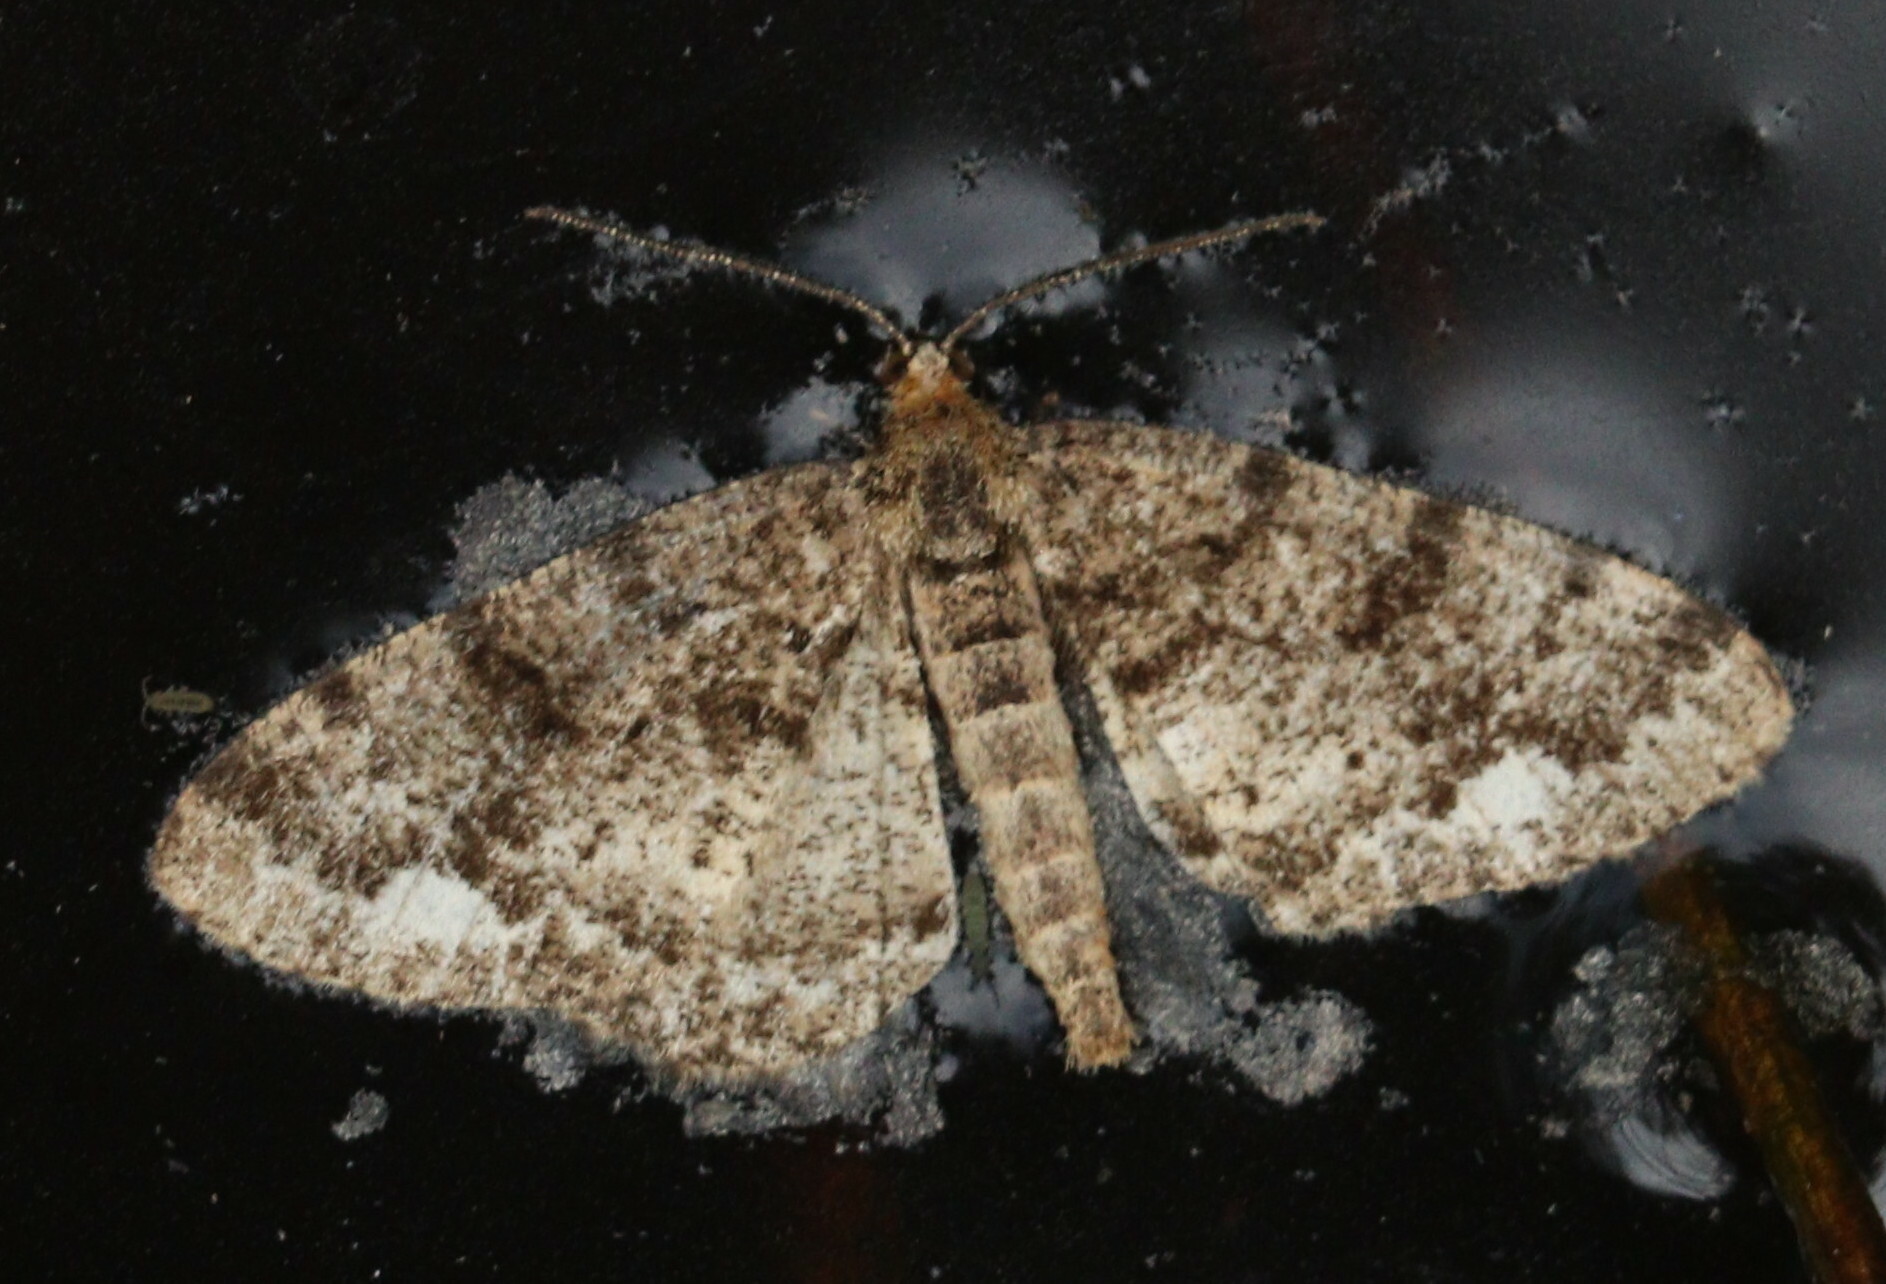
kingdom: Animalia
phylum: Arthropoda
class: Insecta
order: Lepidoptera
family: Geometridae
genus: Parectropis
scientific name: Parectropis similaria
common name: Brindled white-spot
